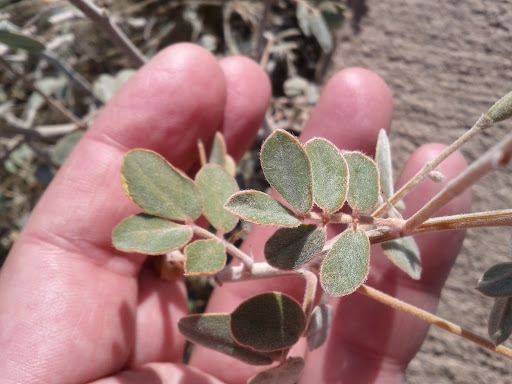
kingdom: Plantae
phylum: Tracheophyta
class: Magnoliopsida
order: Fabales
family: Fabaceae
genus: Senna
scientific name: Senna covesii
